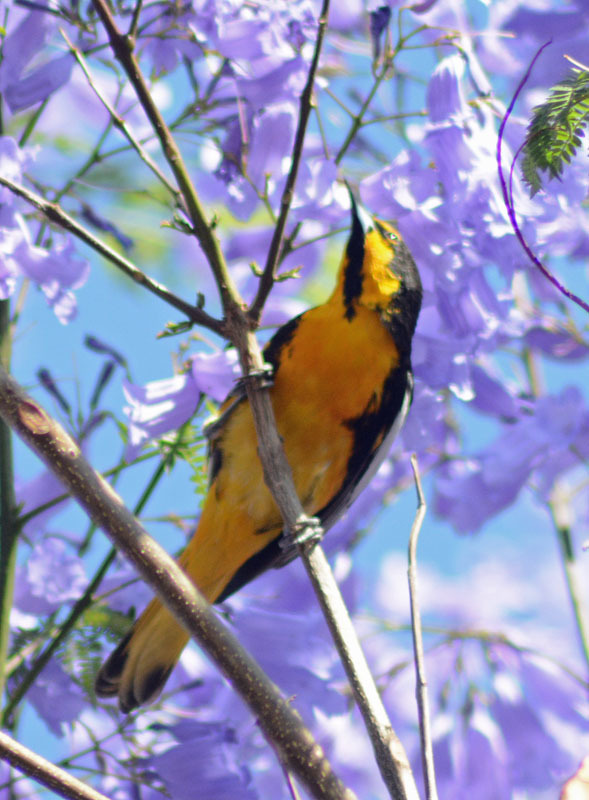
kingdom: Animalia
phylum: Chordata
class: Aves
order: Passeriformes
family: Icteridae
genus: Icterus
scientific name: Icterus abeillei
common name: Black-backed oriole
